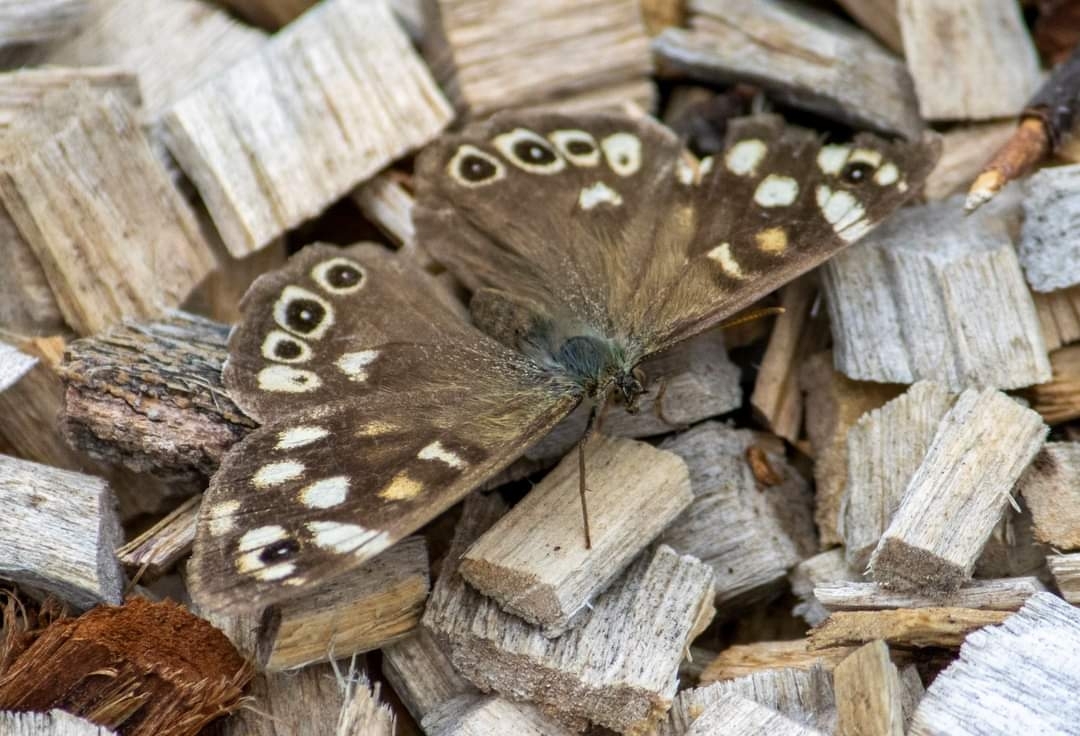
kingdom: Animalia
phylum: Arthropoda
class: Insecta
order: Lepidoptera
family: Nymphalidae
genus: Pararge
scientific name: Pararge aegeria
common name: Speckled wood
